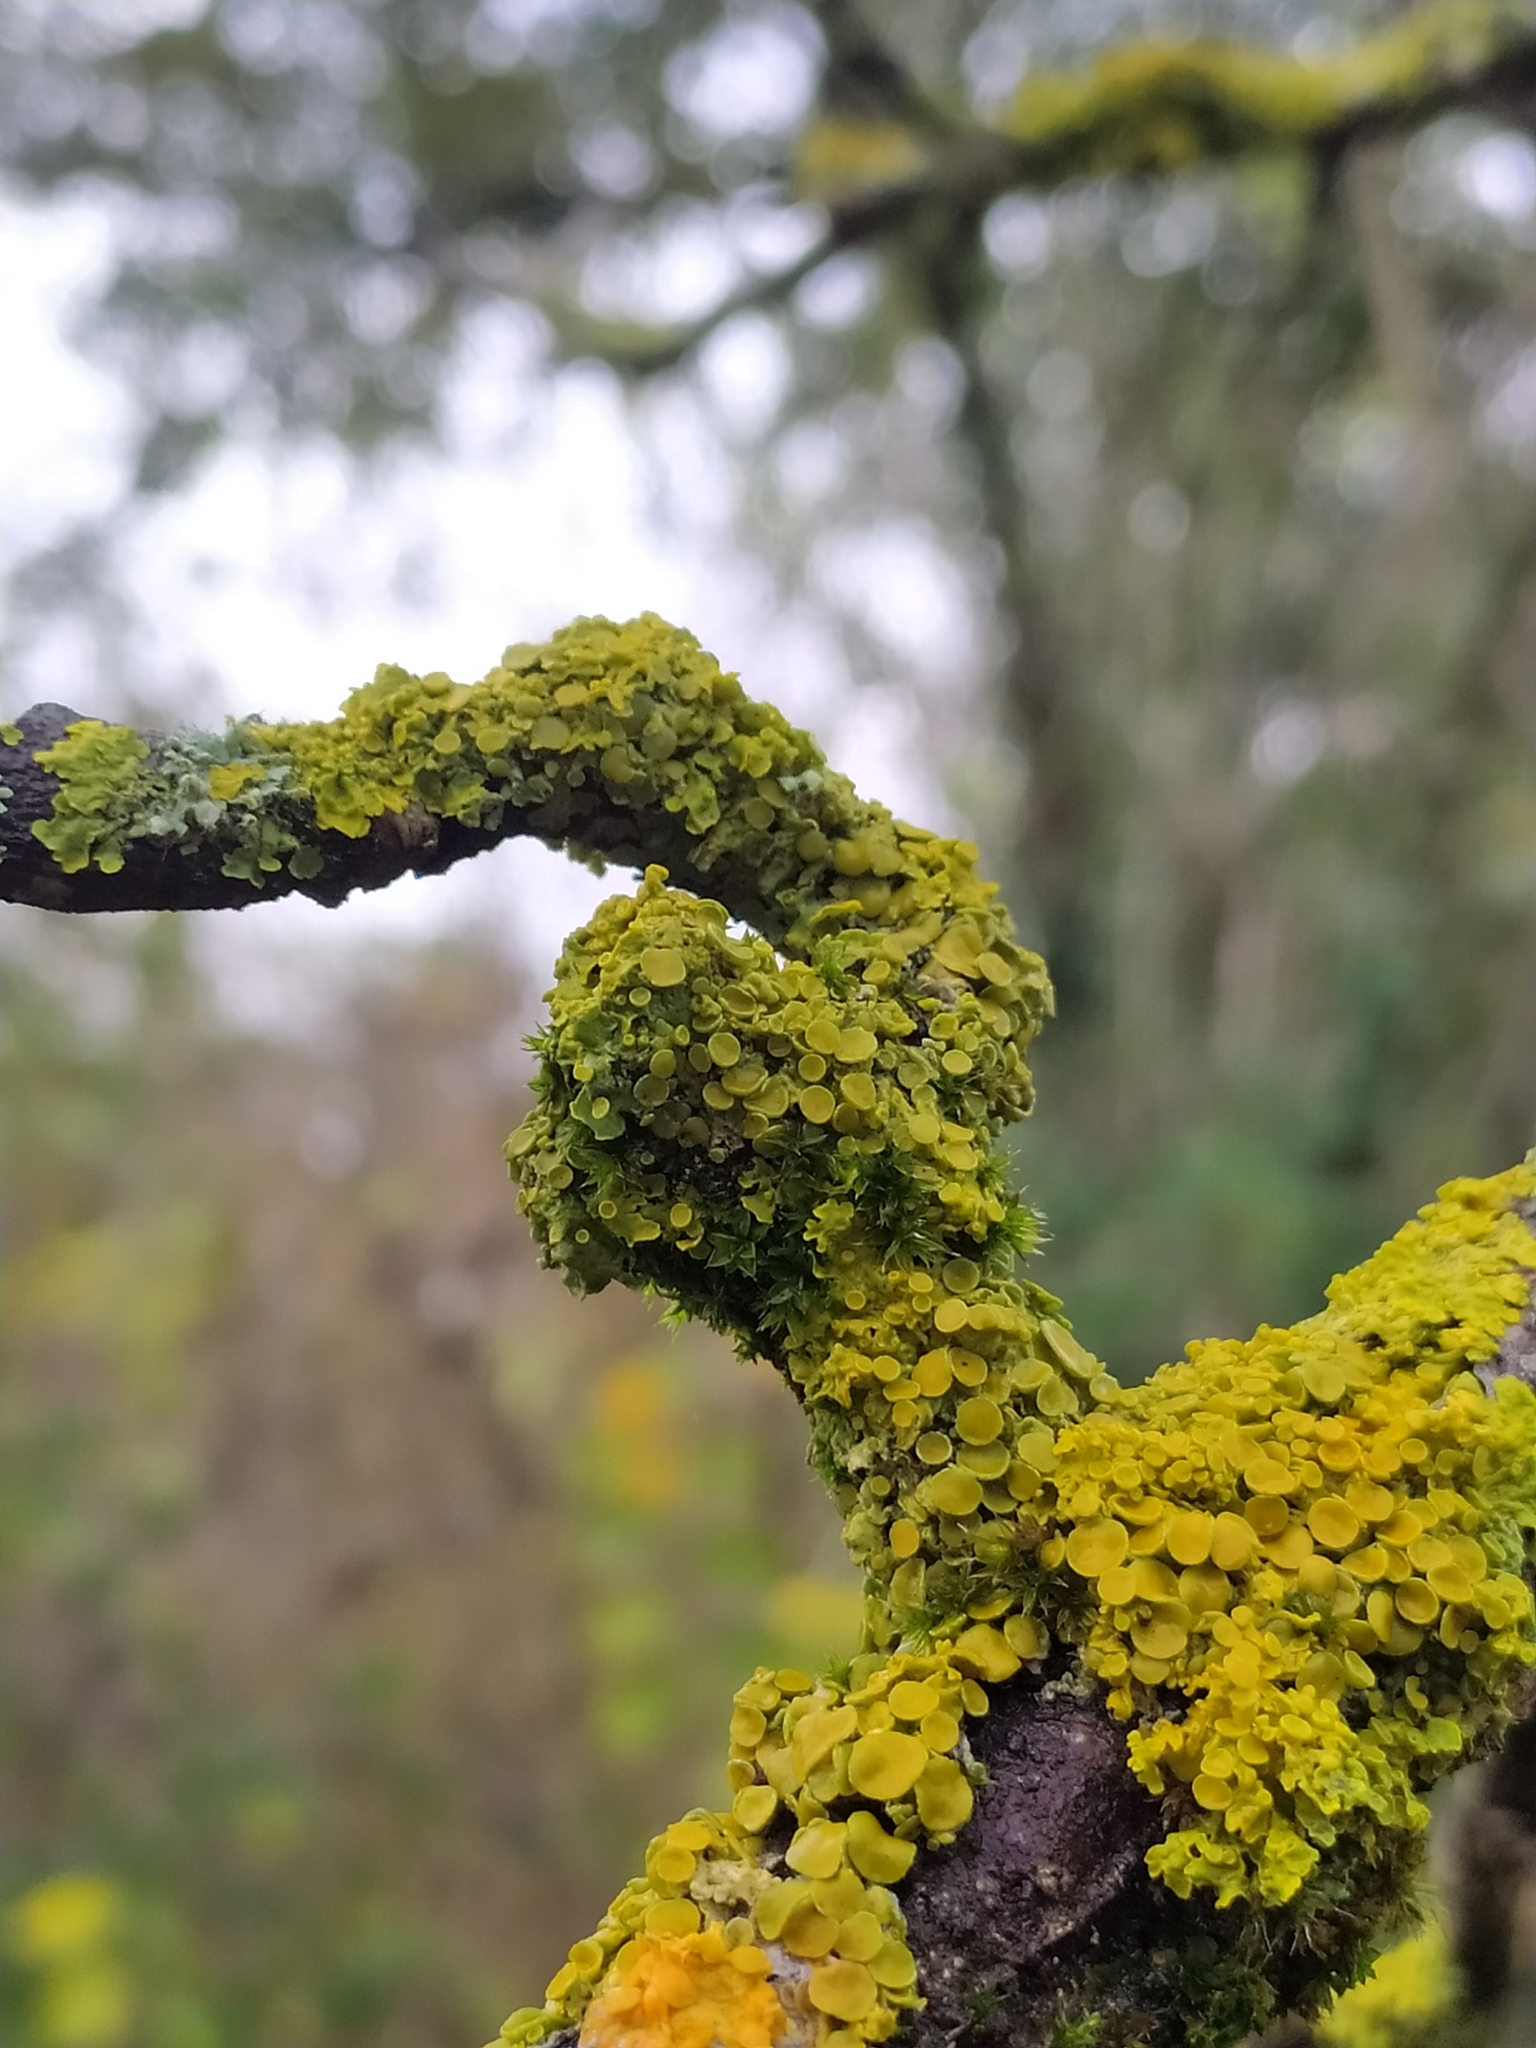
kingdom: Fungi
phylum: Ascomycota
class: Lecanoromycetes
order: Teloschistales
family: Teloschistaceae
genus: Xanthoria
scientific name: Xanthoria parietina
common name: Common orange lichen
